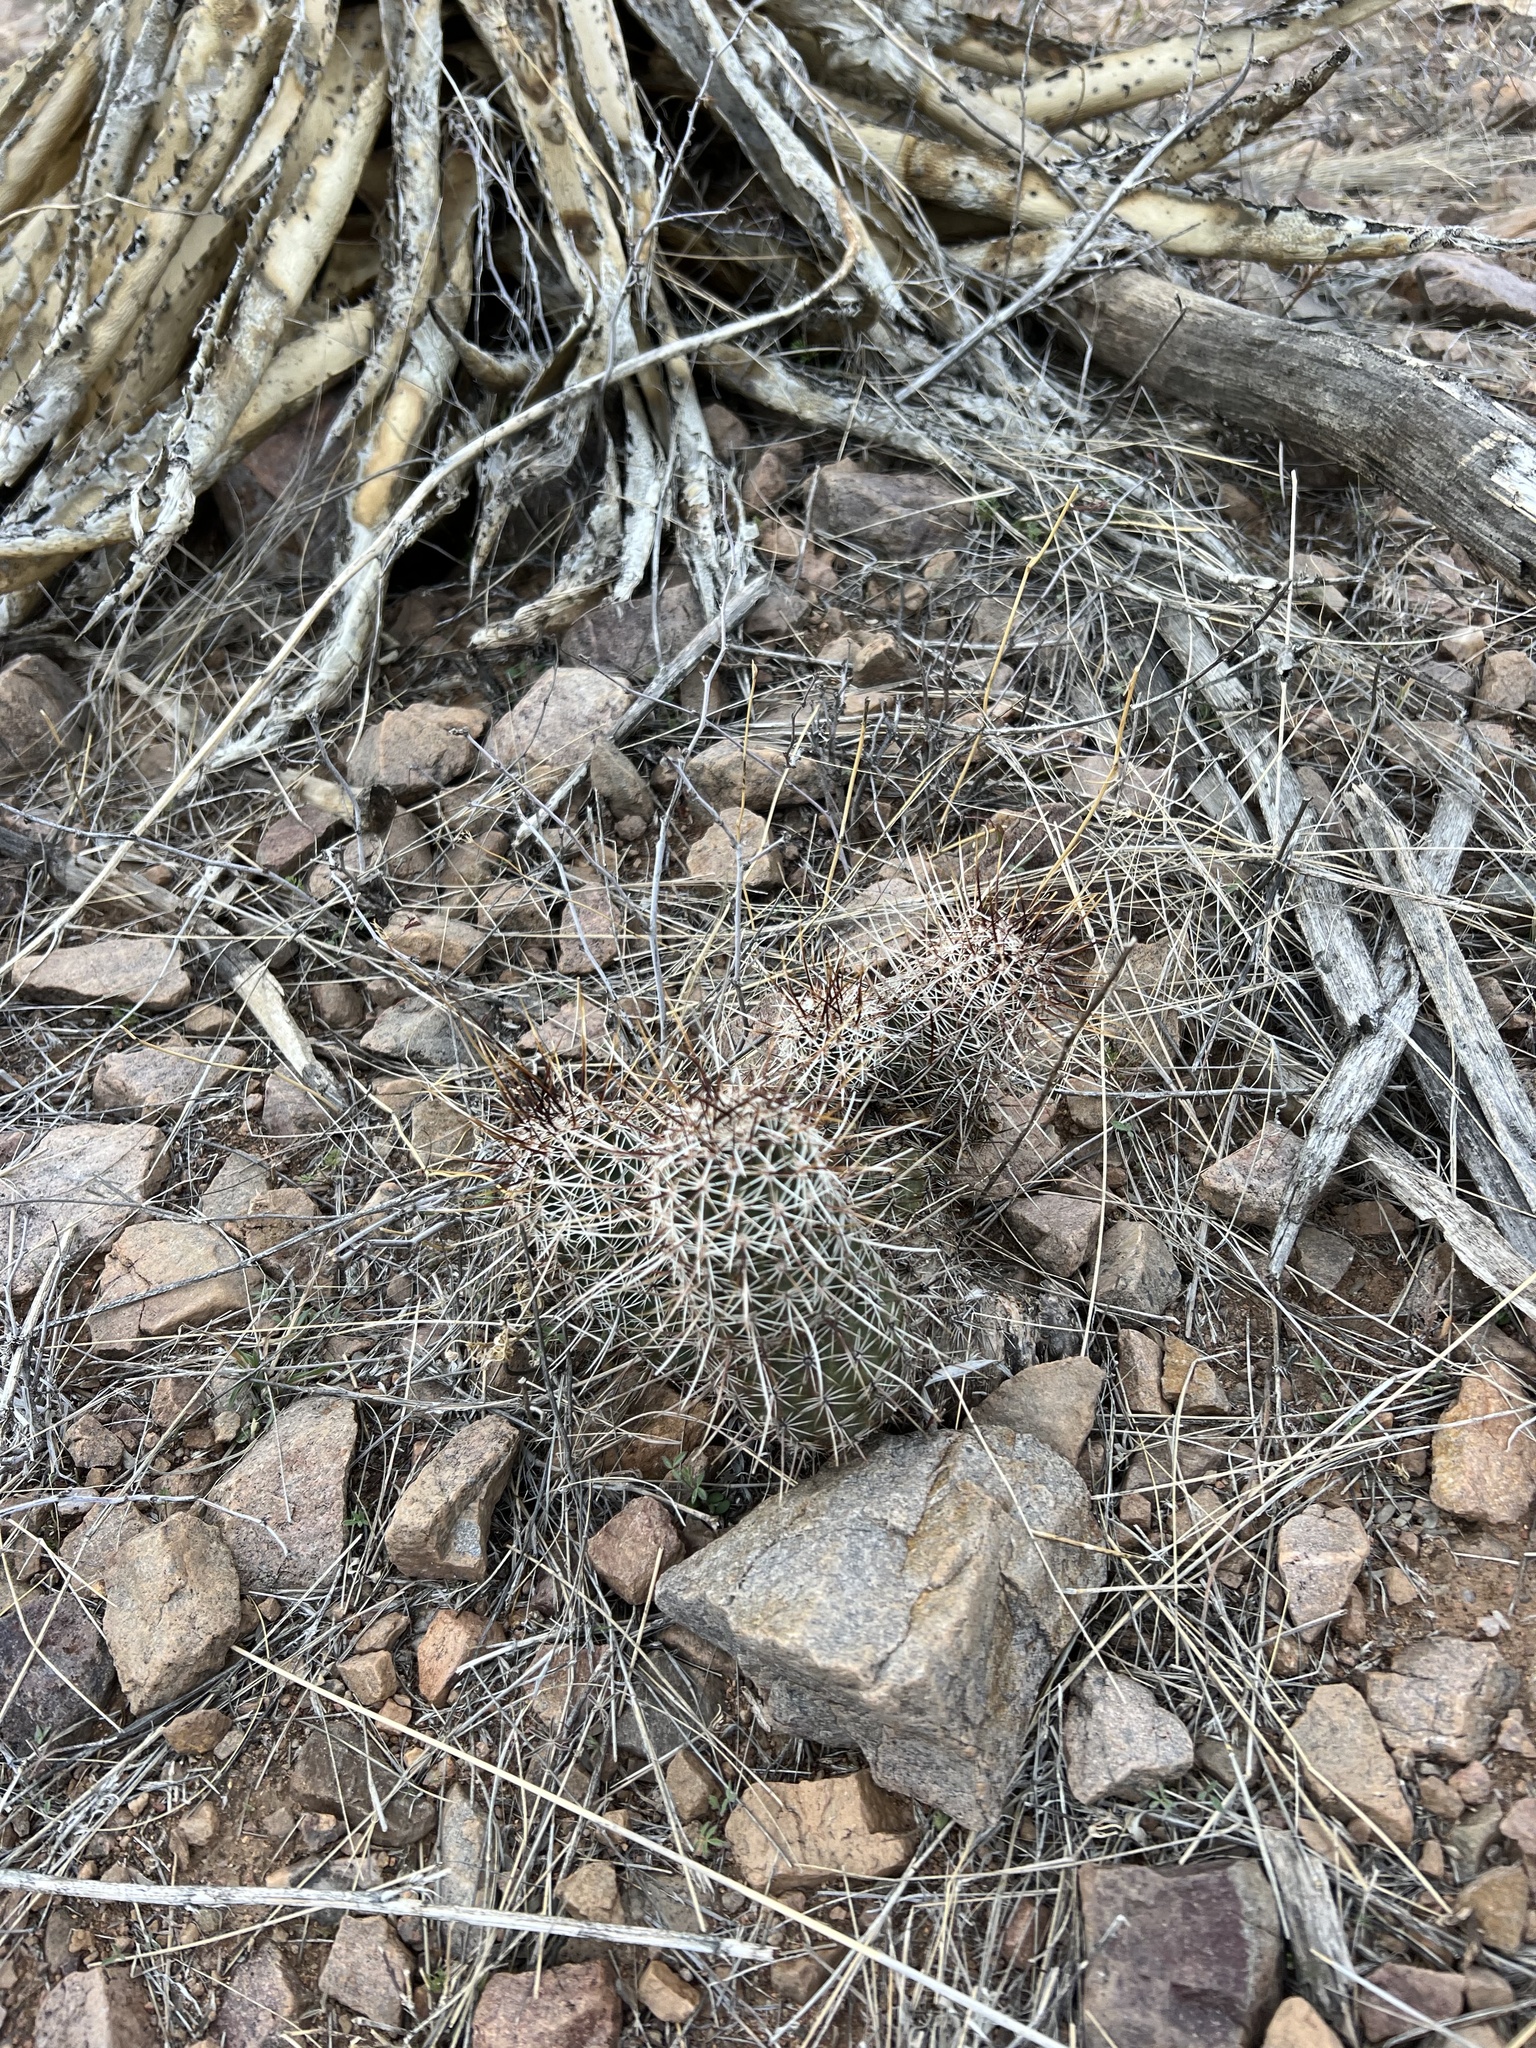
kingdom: Plantae
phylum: Tracheophyta
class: Magnoliopsida
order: Caryophyllales
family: Cactaceae
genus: Echinocereus
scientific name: Echinocereus fasciculatus
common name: Bundle hedgehog
